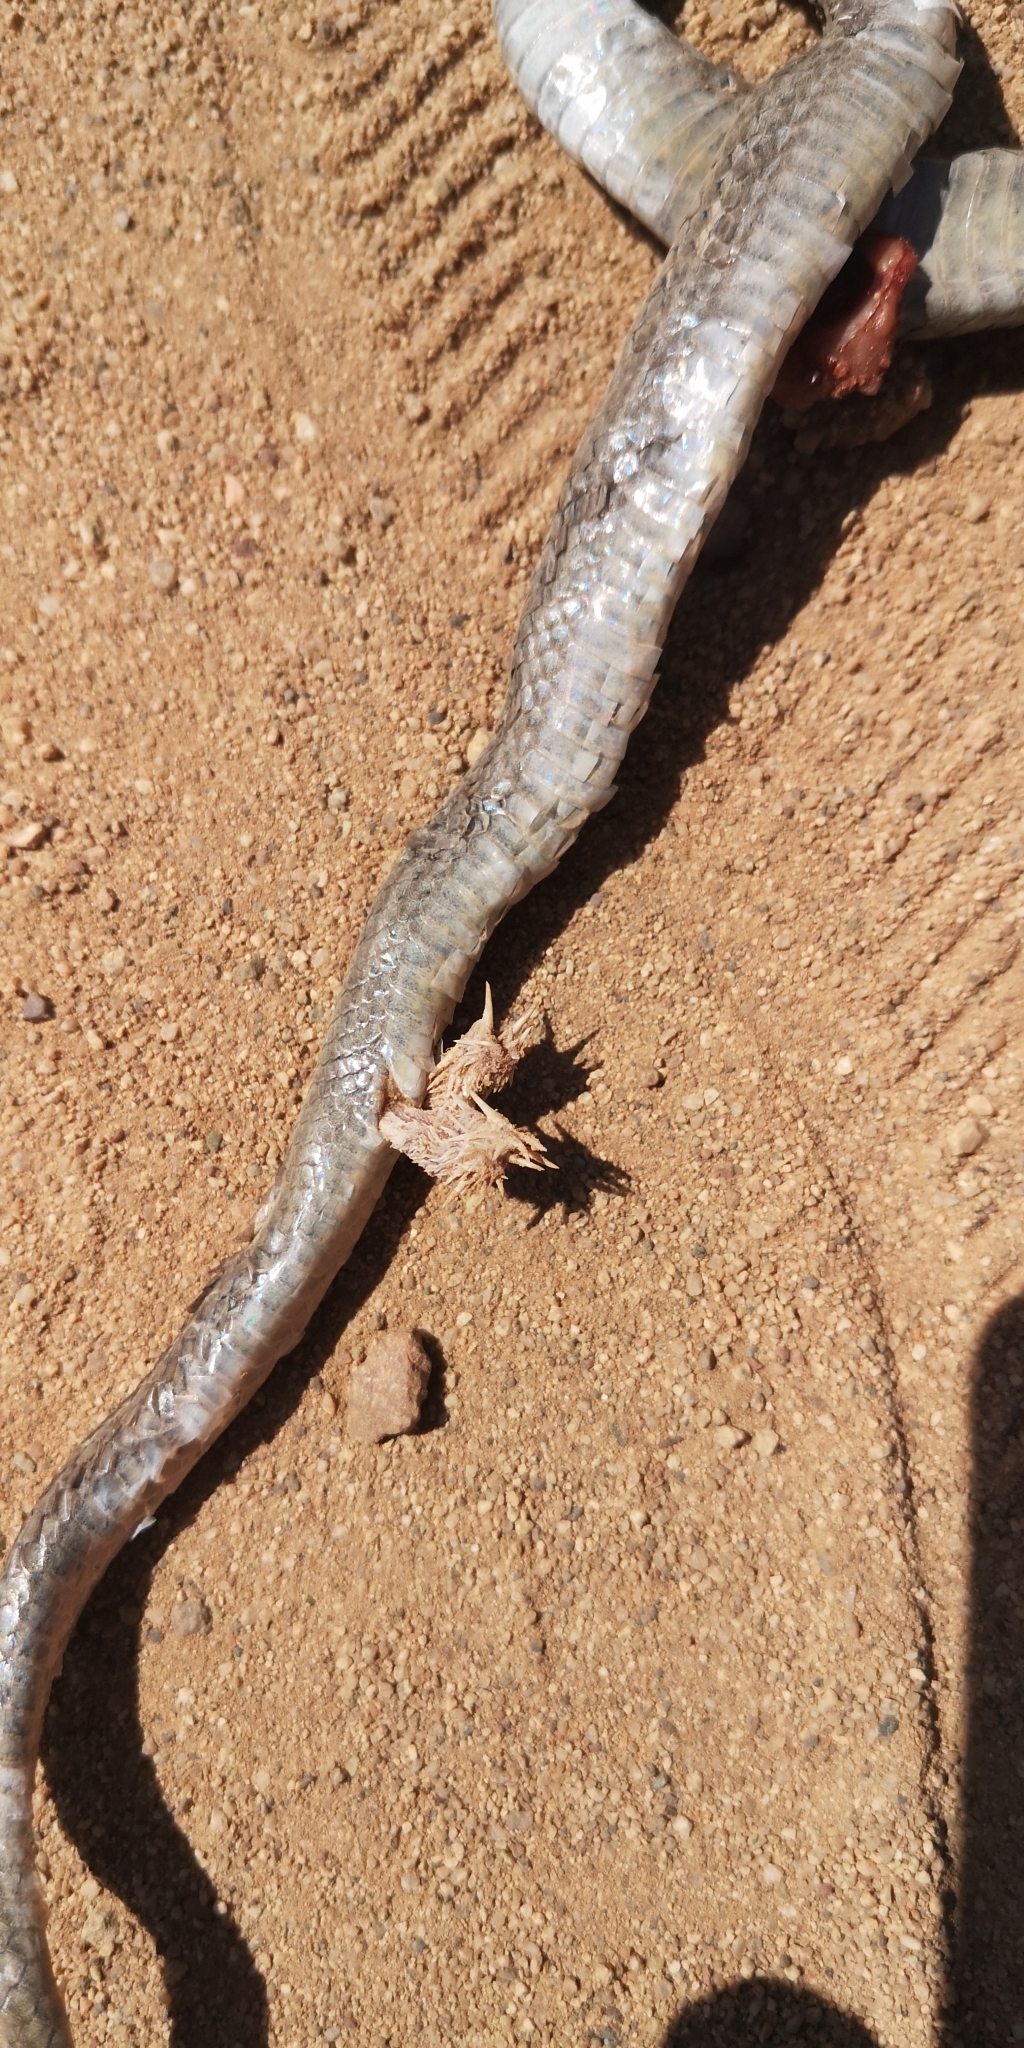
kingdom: Animalia
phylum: Chordata
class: Squamata
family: Colubridae
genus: Philodryas
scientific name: Philodryas chamissonis
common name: Chilean green racer
